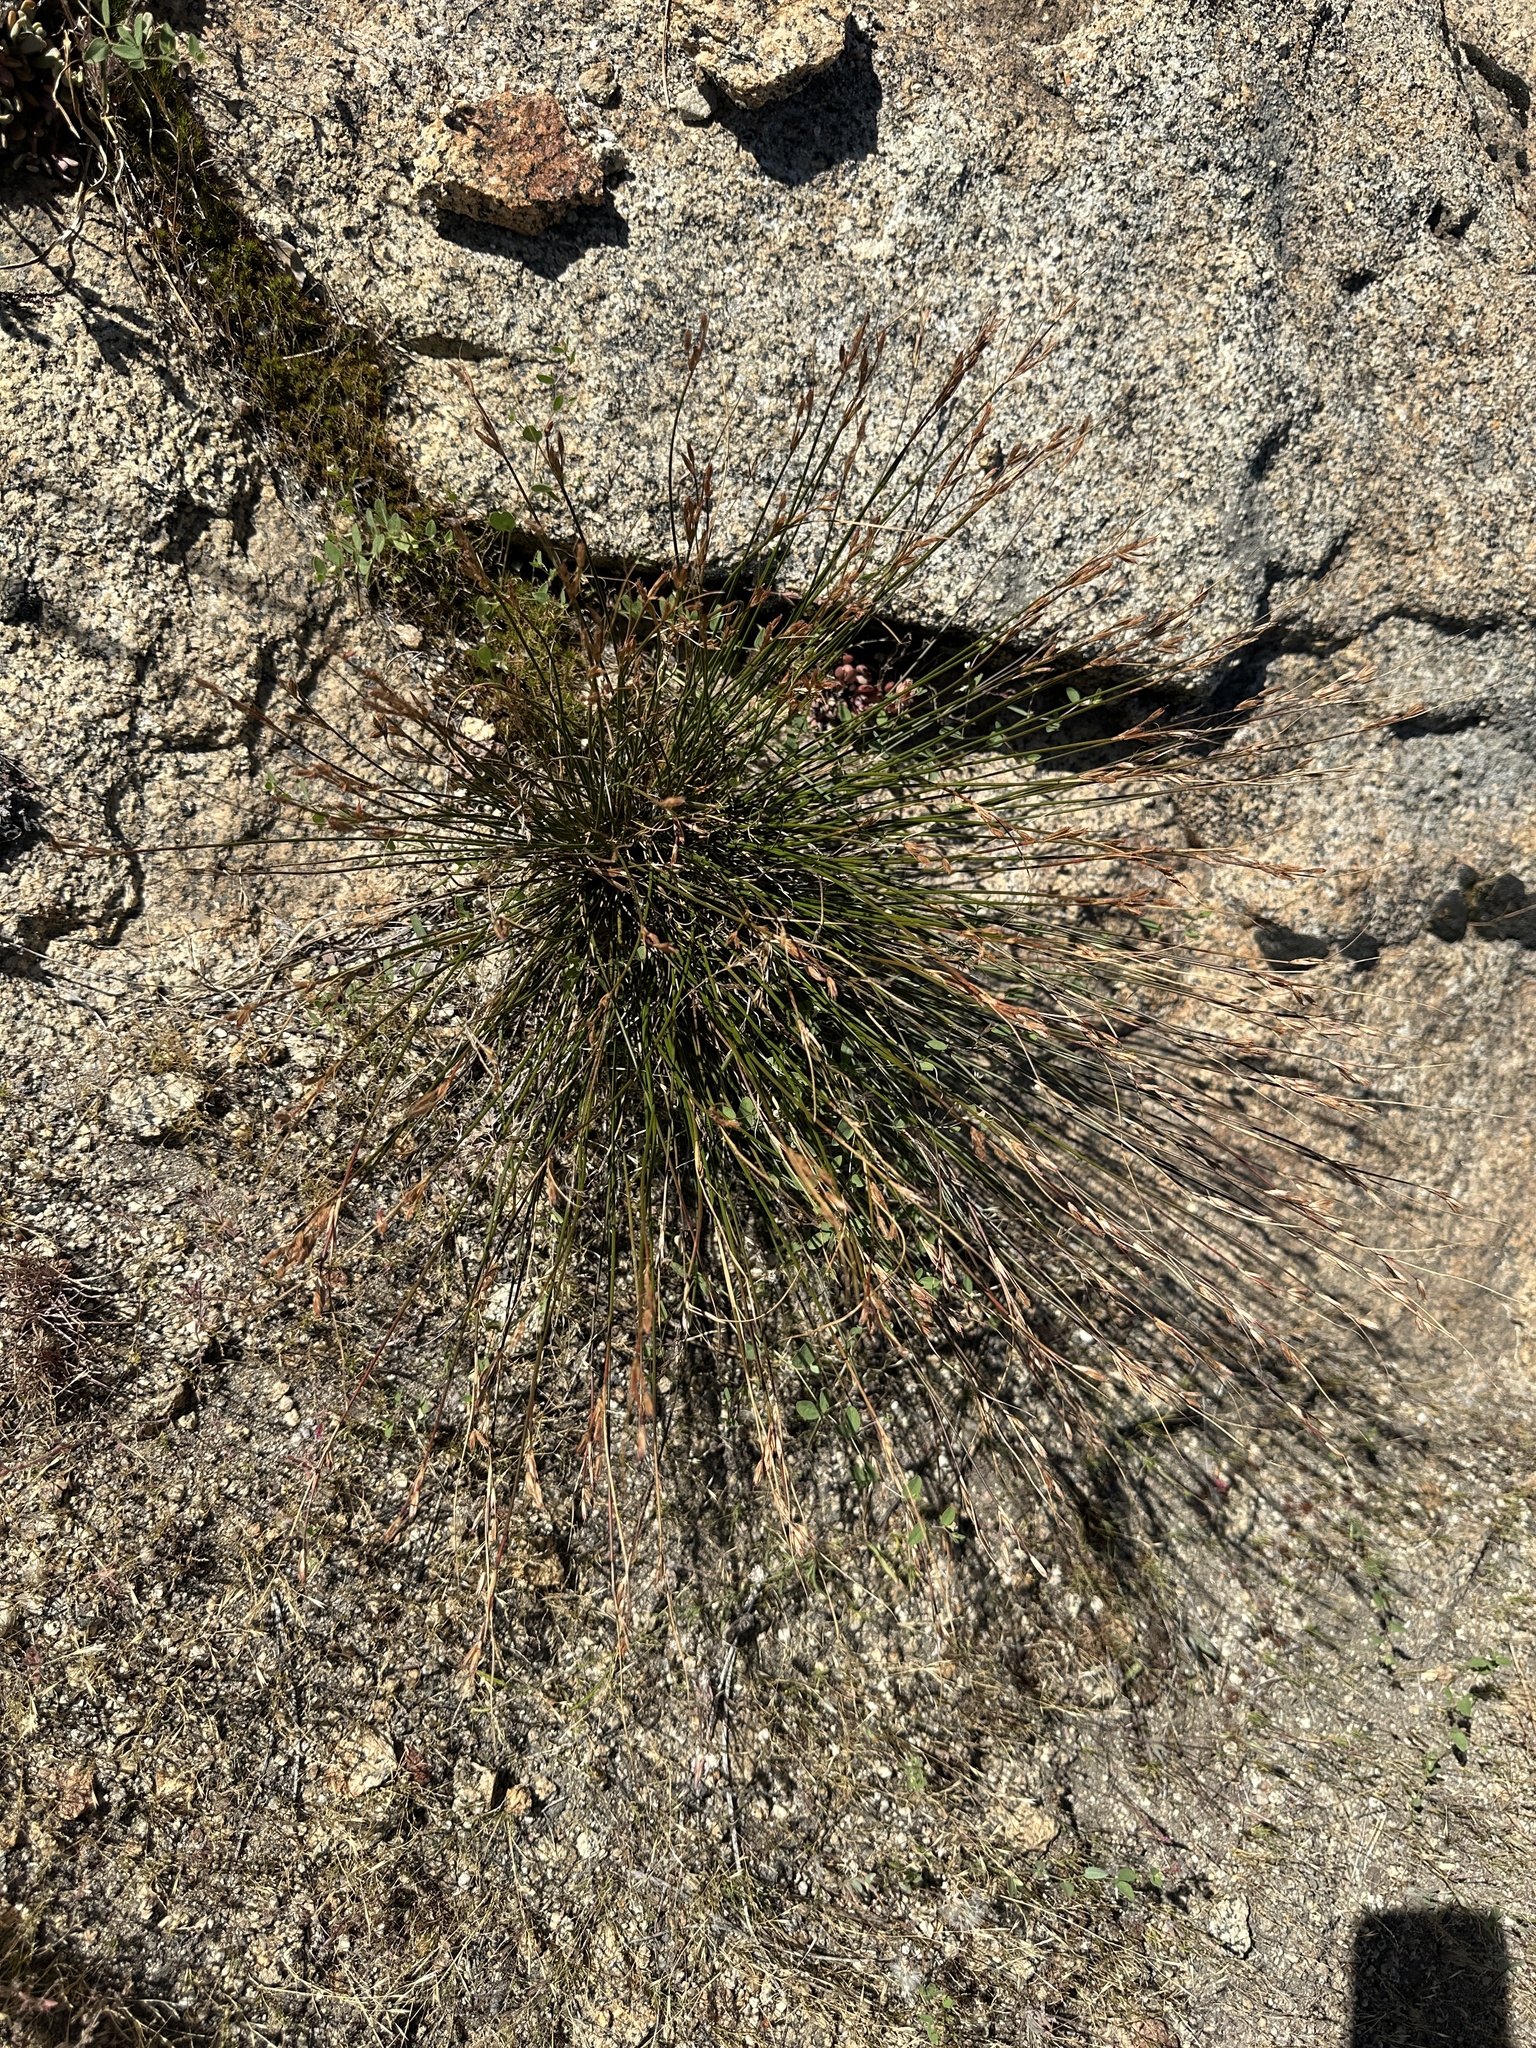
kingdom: Plantae
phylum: Tracheophyta
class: Liliopsida
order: Poales
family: Juncaceae
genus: Juncus
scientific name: Juncus parryi
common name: Parry's rush
